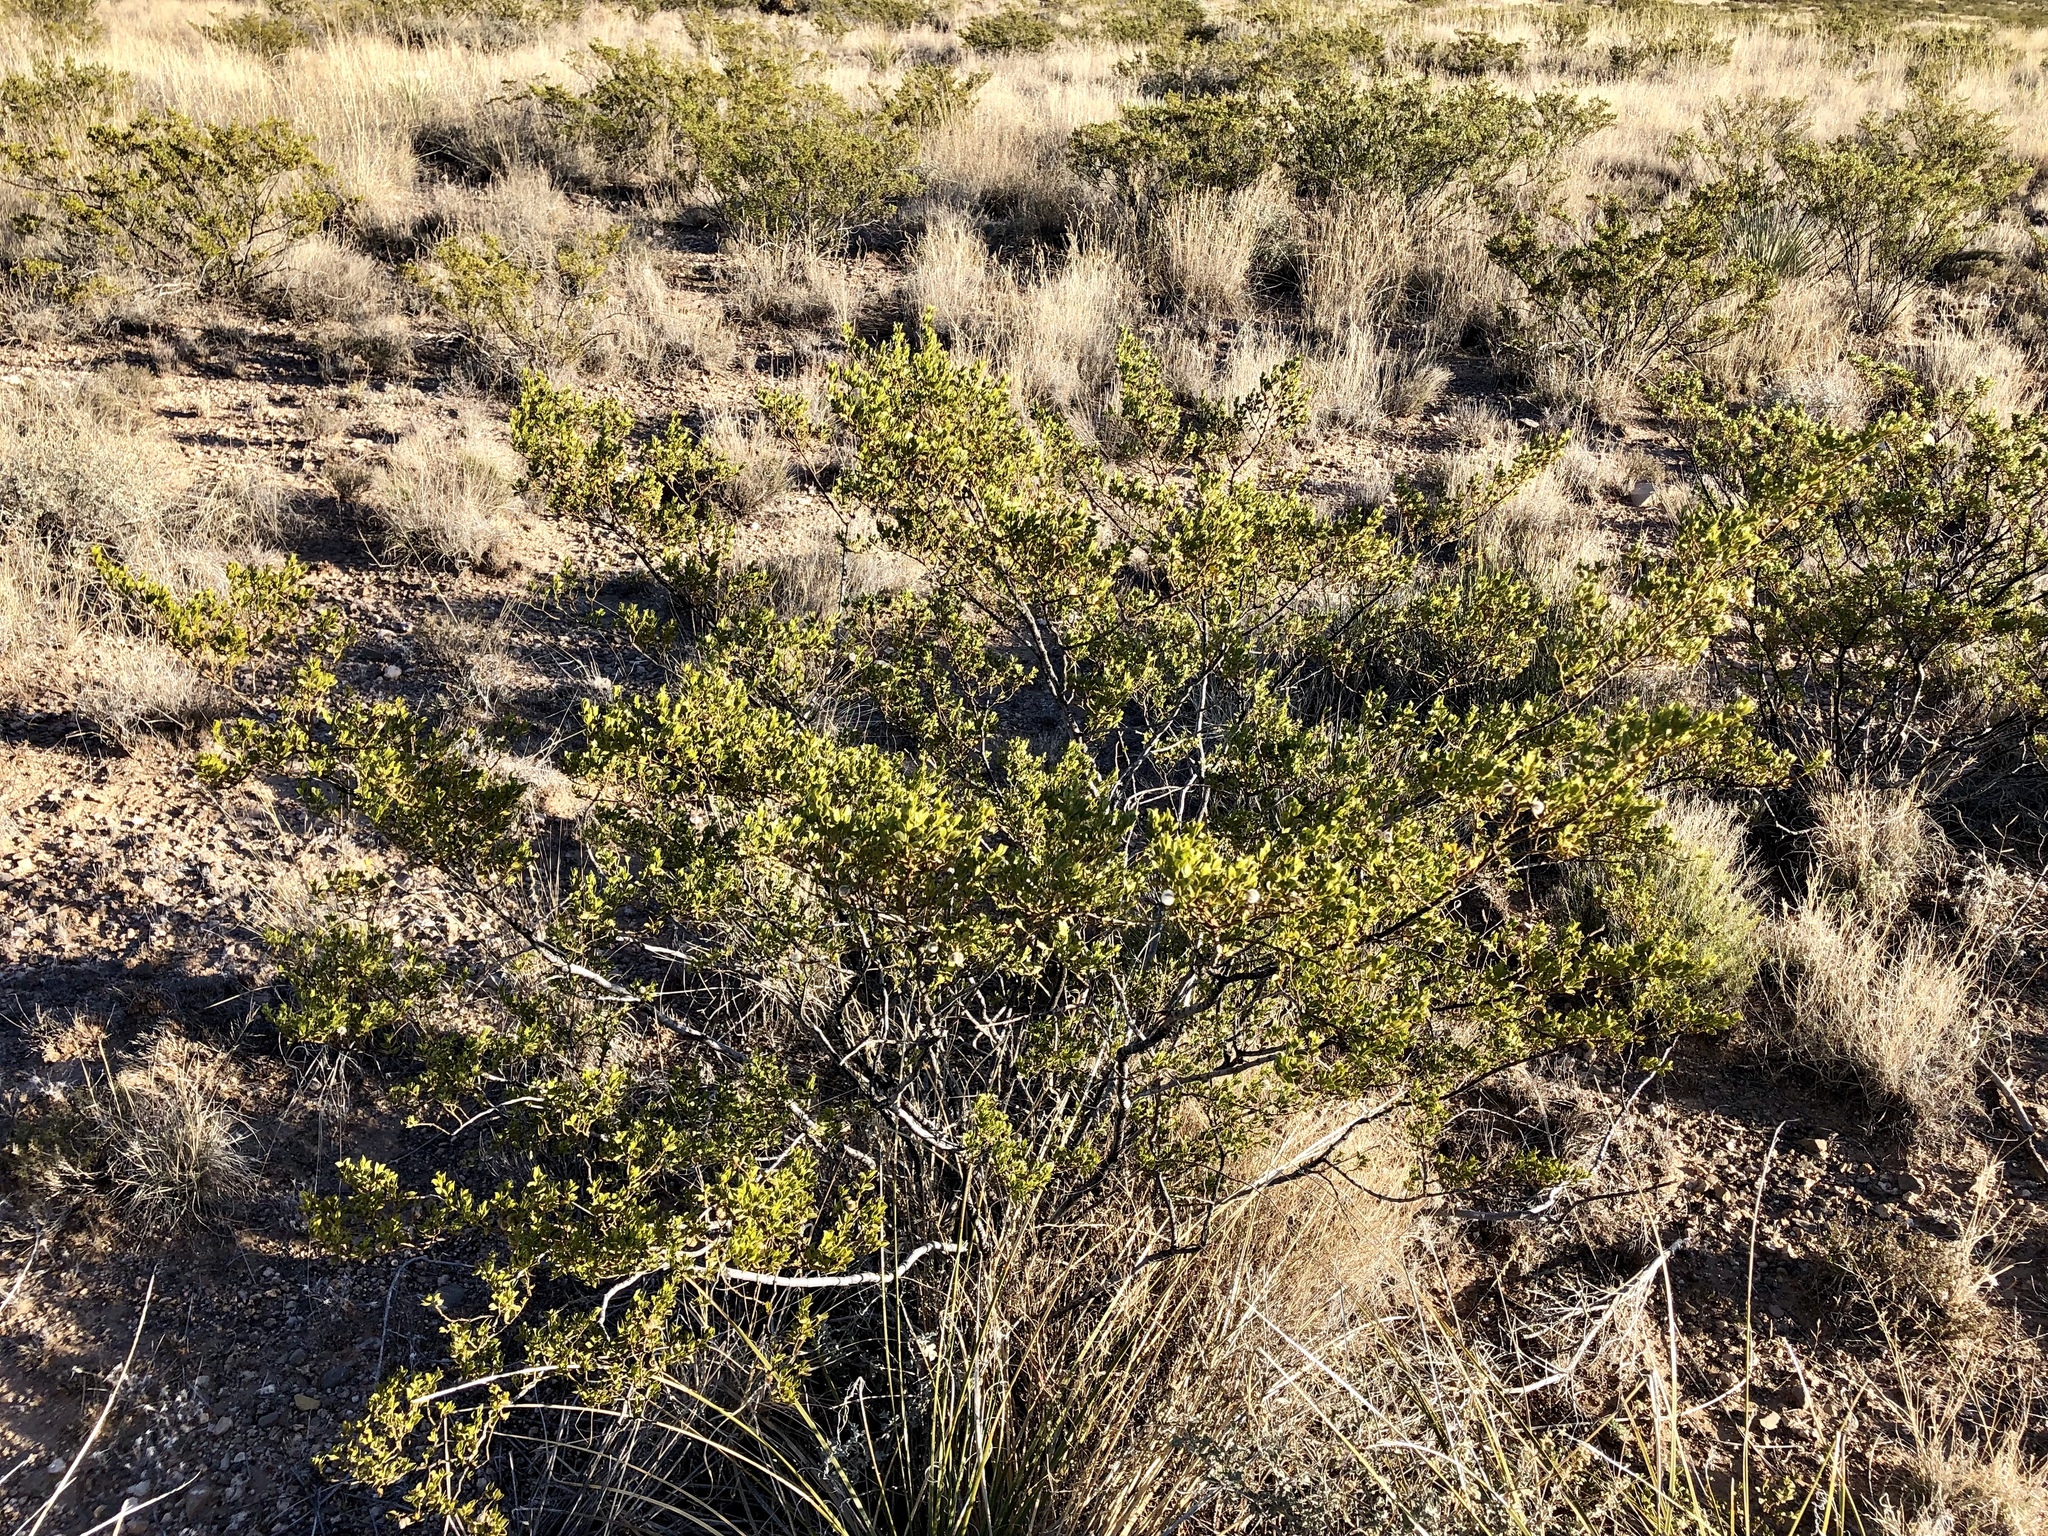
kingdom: Plantae
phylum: Tracheophyta
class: Magnoliopsida
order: Zygophyllales
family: Zygophyllaceae
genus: Larrea
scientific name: Larrea tridentata
